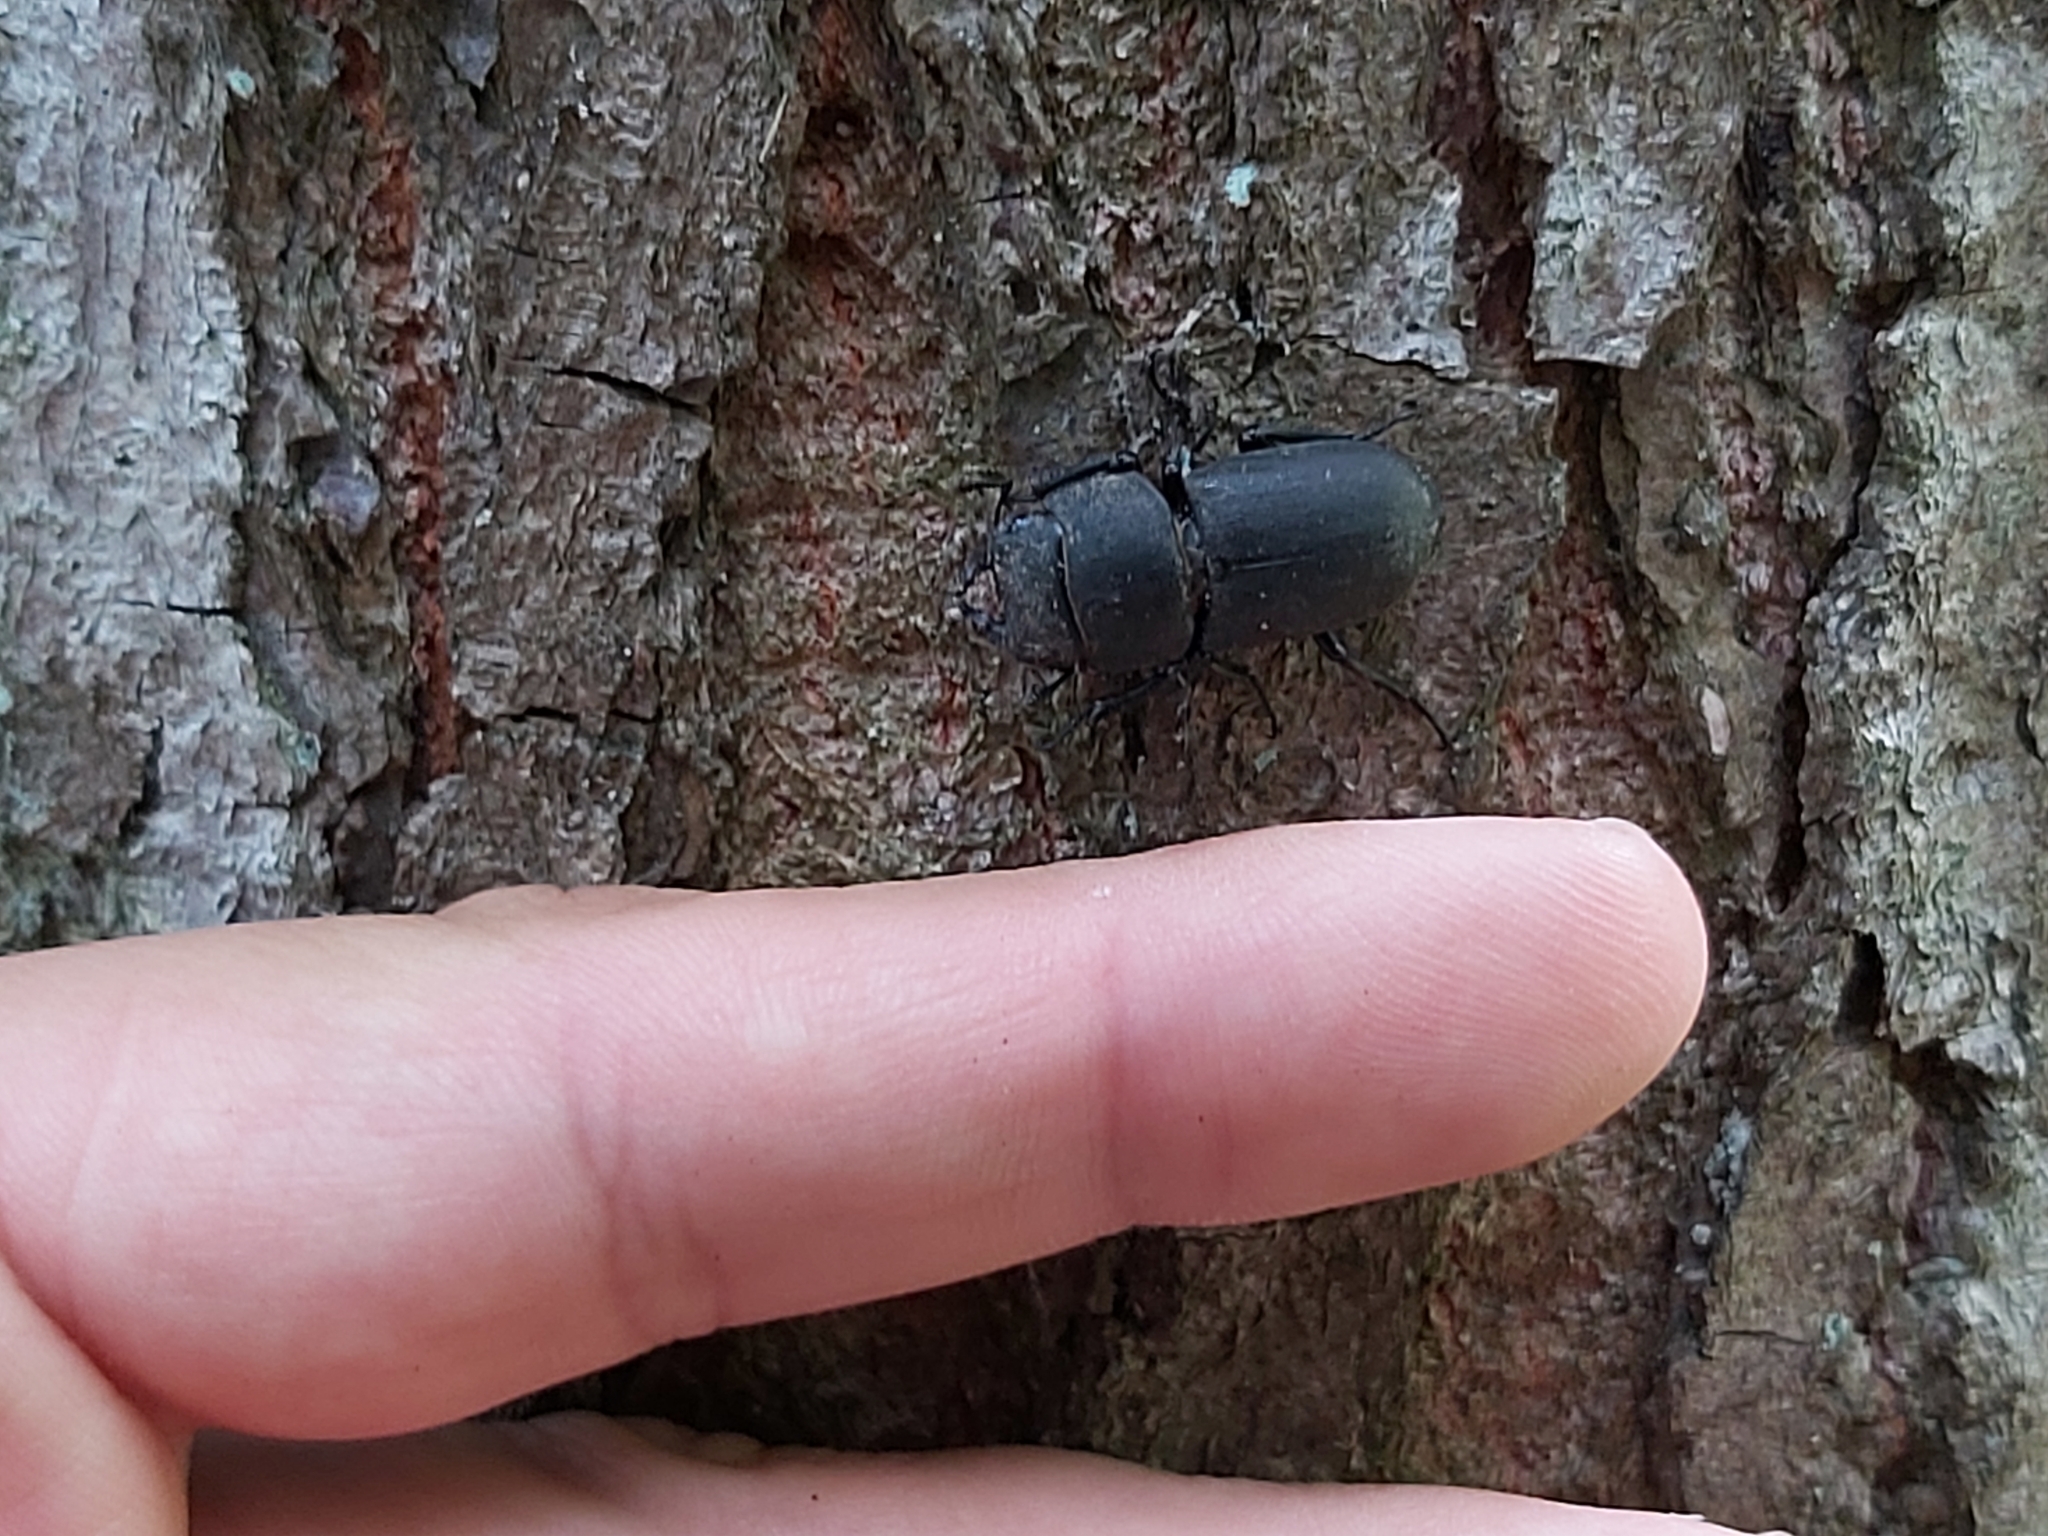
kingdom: Animalia
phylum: Arthropoda
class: Insecta
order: Coleoptera
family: Lucanidae
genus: Dorcus
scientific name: Dorcus parallelipipedus
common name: Lesser stag beetle
